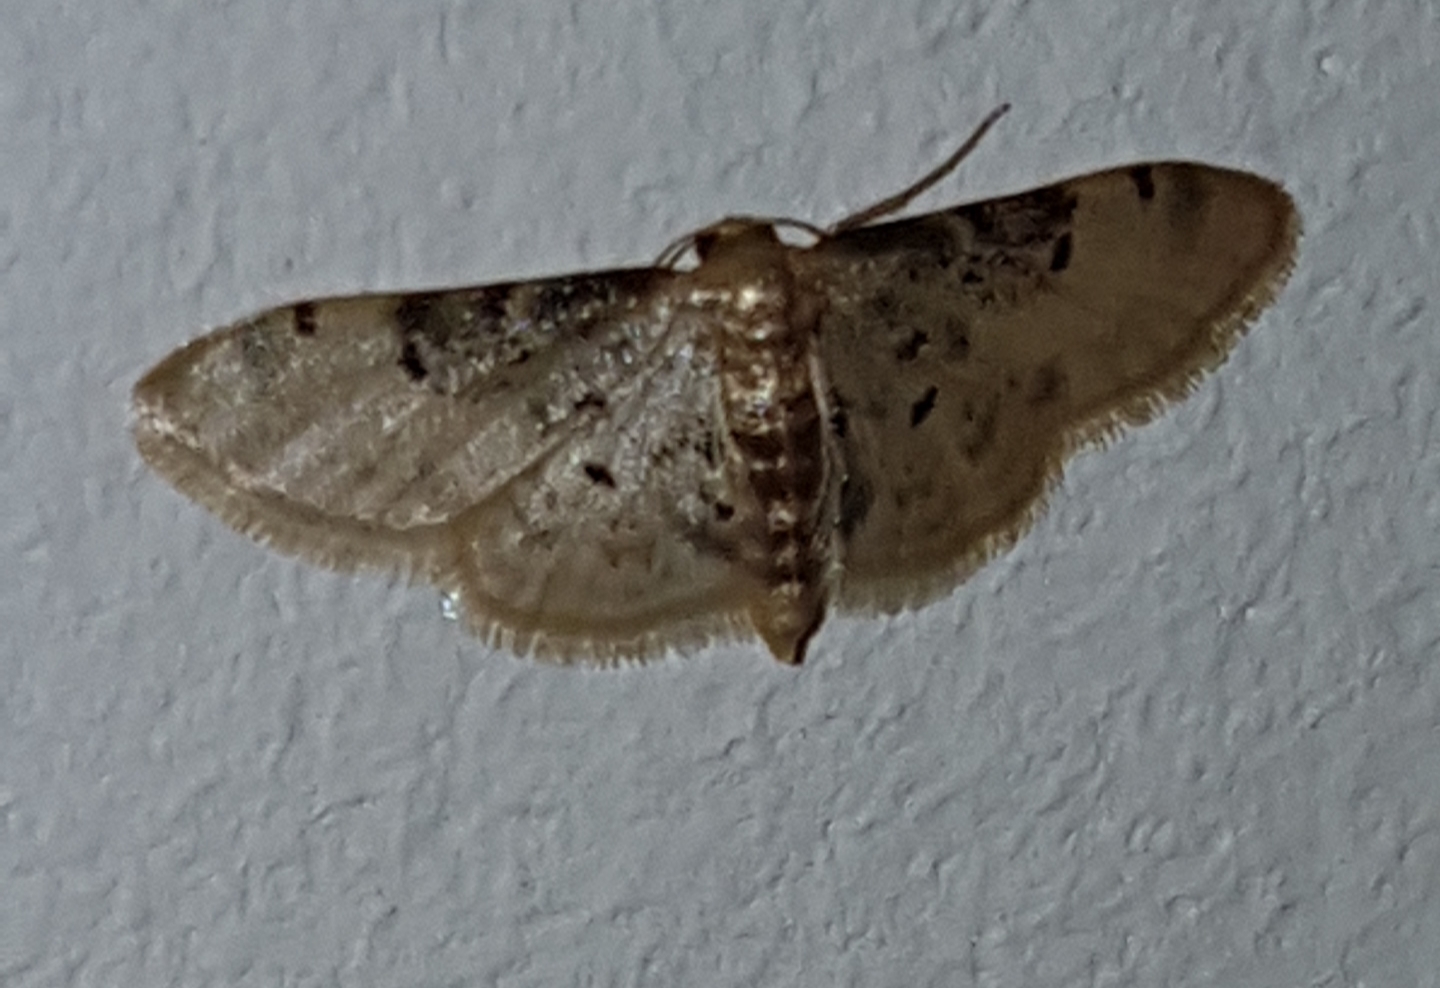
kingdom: Animalia
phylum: Arthropoda
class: Insecta
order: Lepidoptera
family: Geometridae
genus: Idaea
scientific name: Idaea filicata
